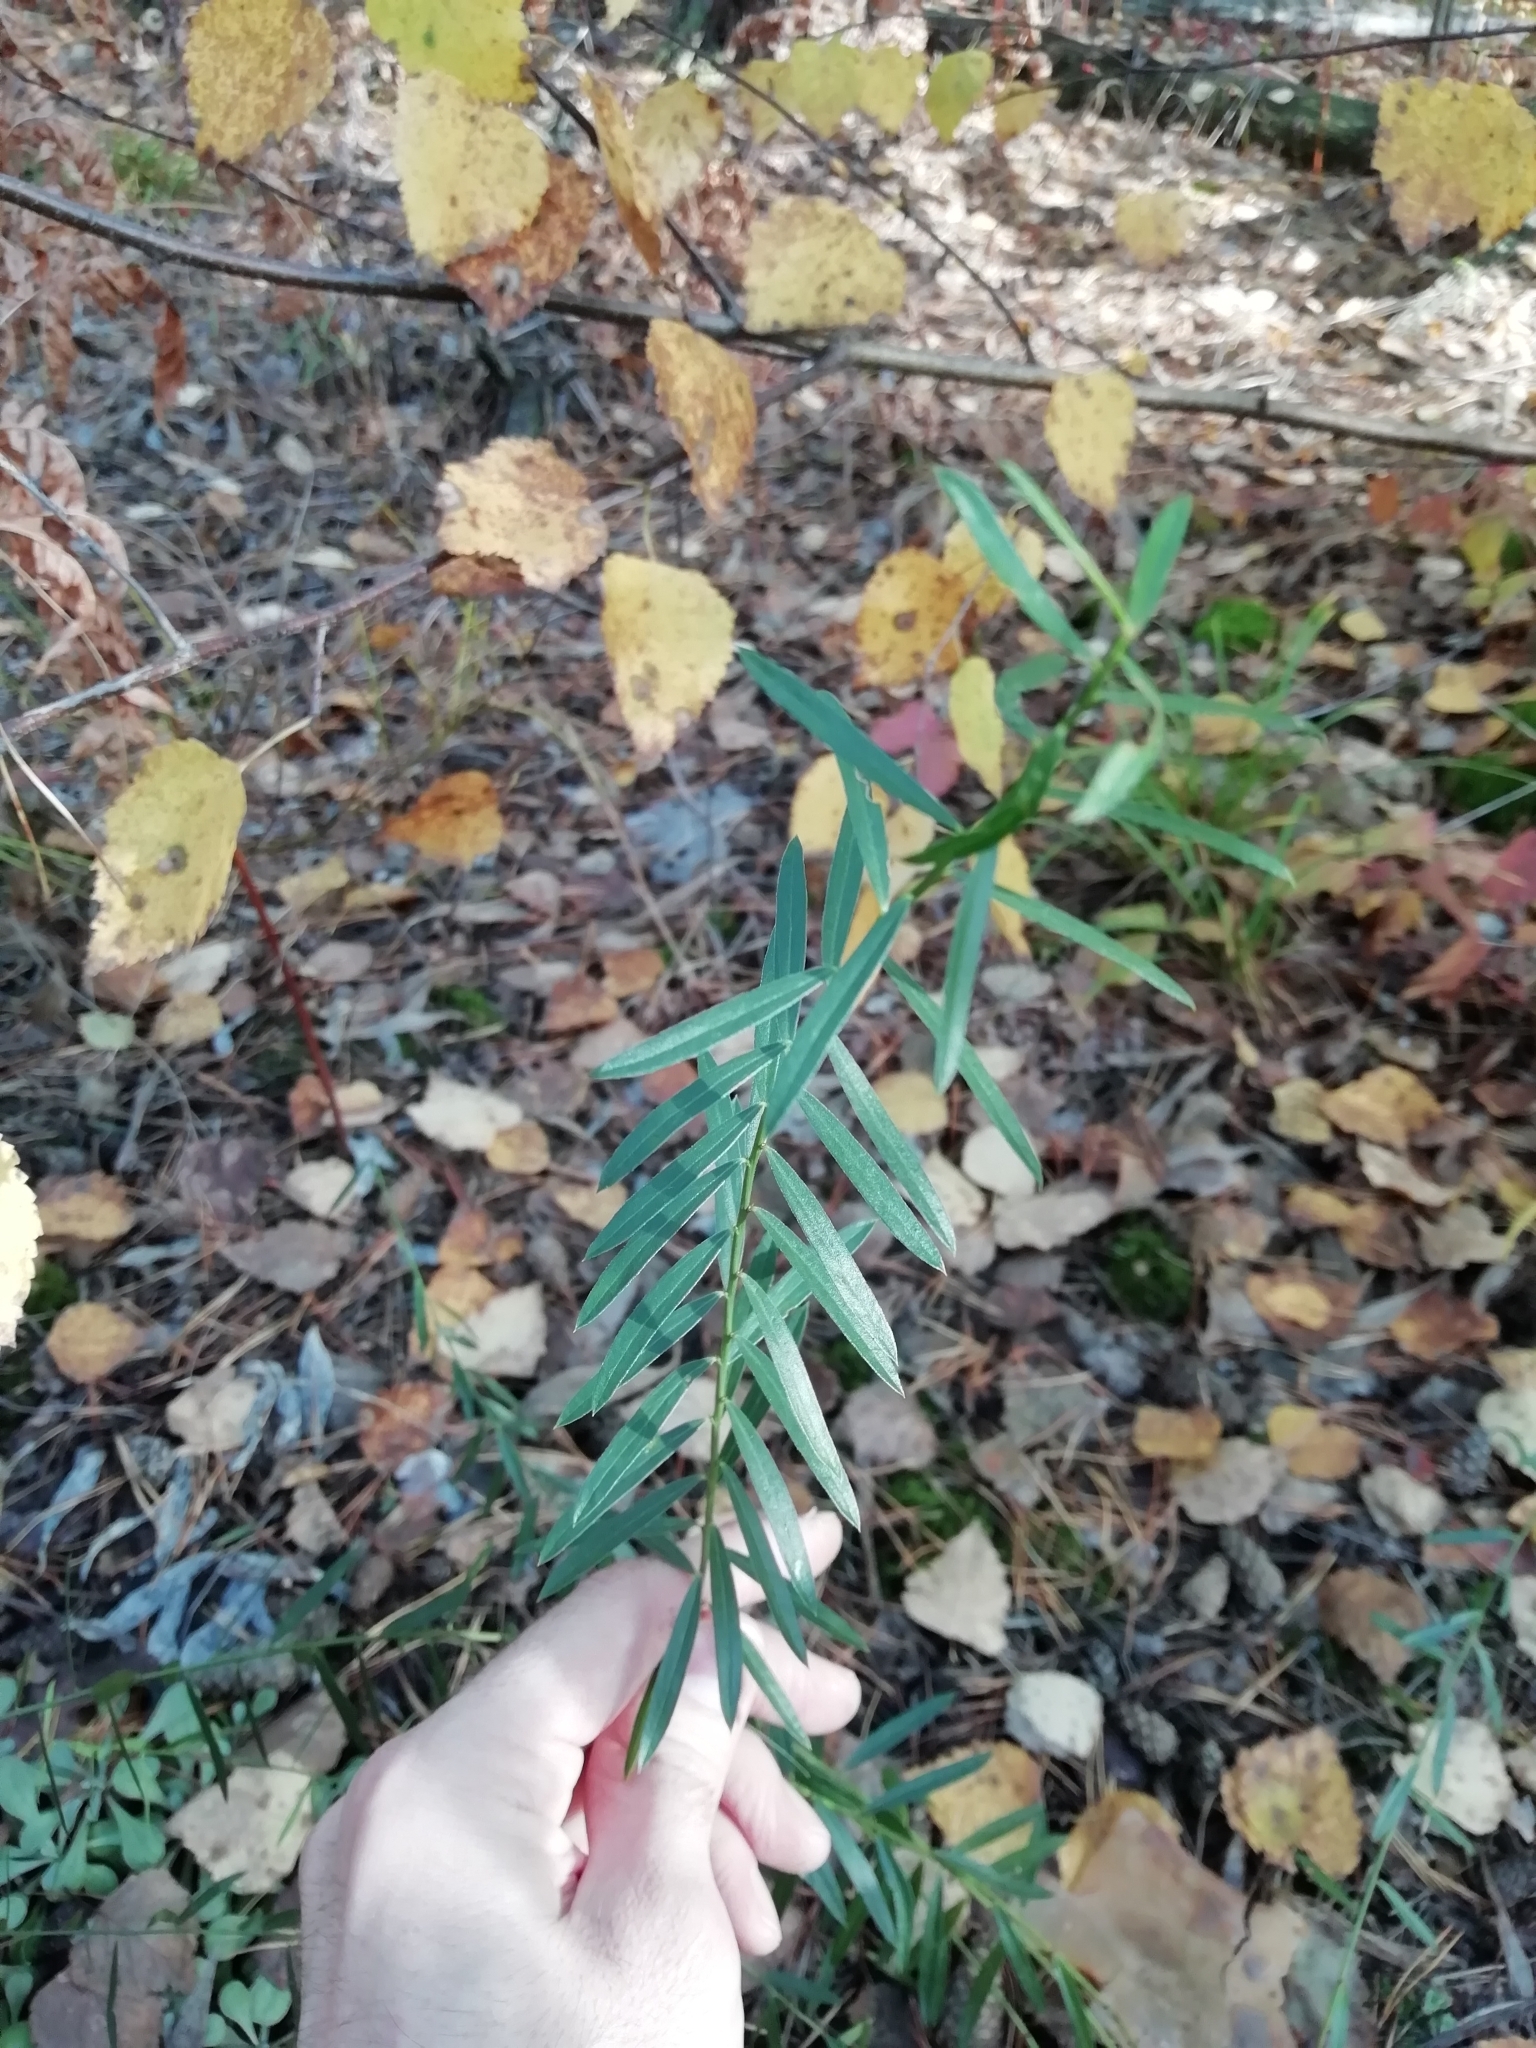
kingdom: Plantae
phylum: Tracheophyta
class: Magnoliopsida
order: Fabales
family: Fabaceae
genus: Genista
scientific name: Genista tinctoria
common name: Dyer's greenweed
